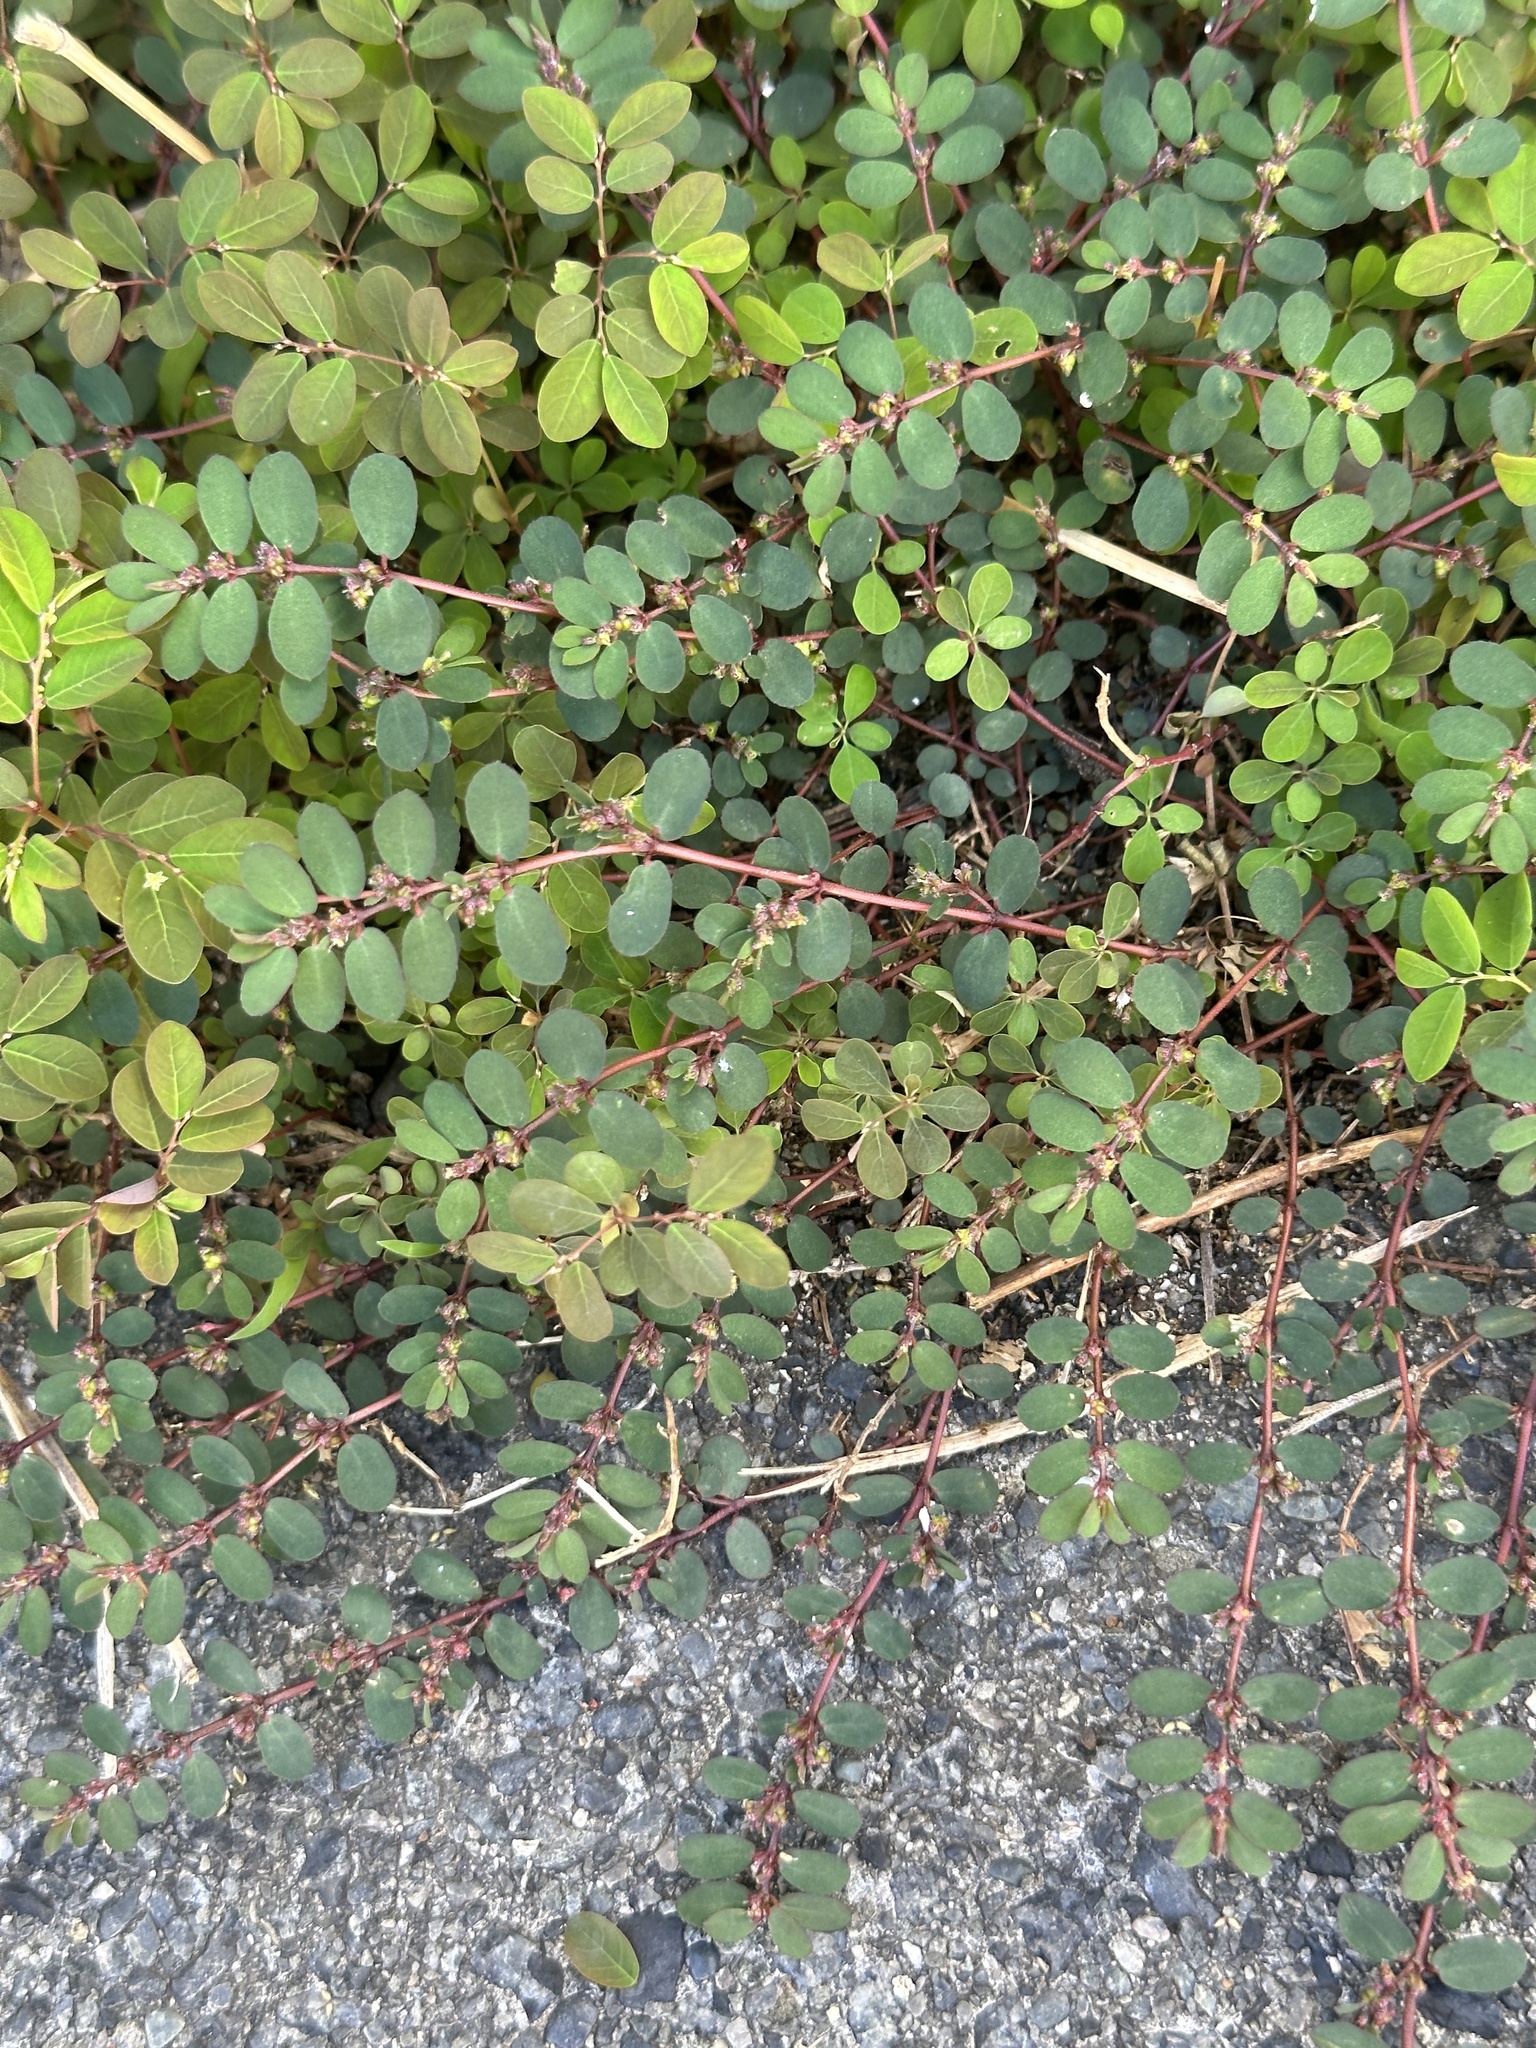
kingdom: Plantae
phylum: Tracheophyta
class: Magnoliopsida
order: Malpighiales
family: Euphorbiaceae
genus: Euphorbia
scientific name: Euphorbia prostrata
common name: Prostrate sandmat
